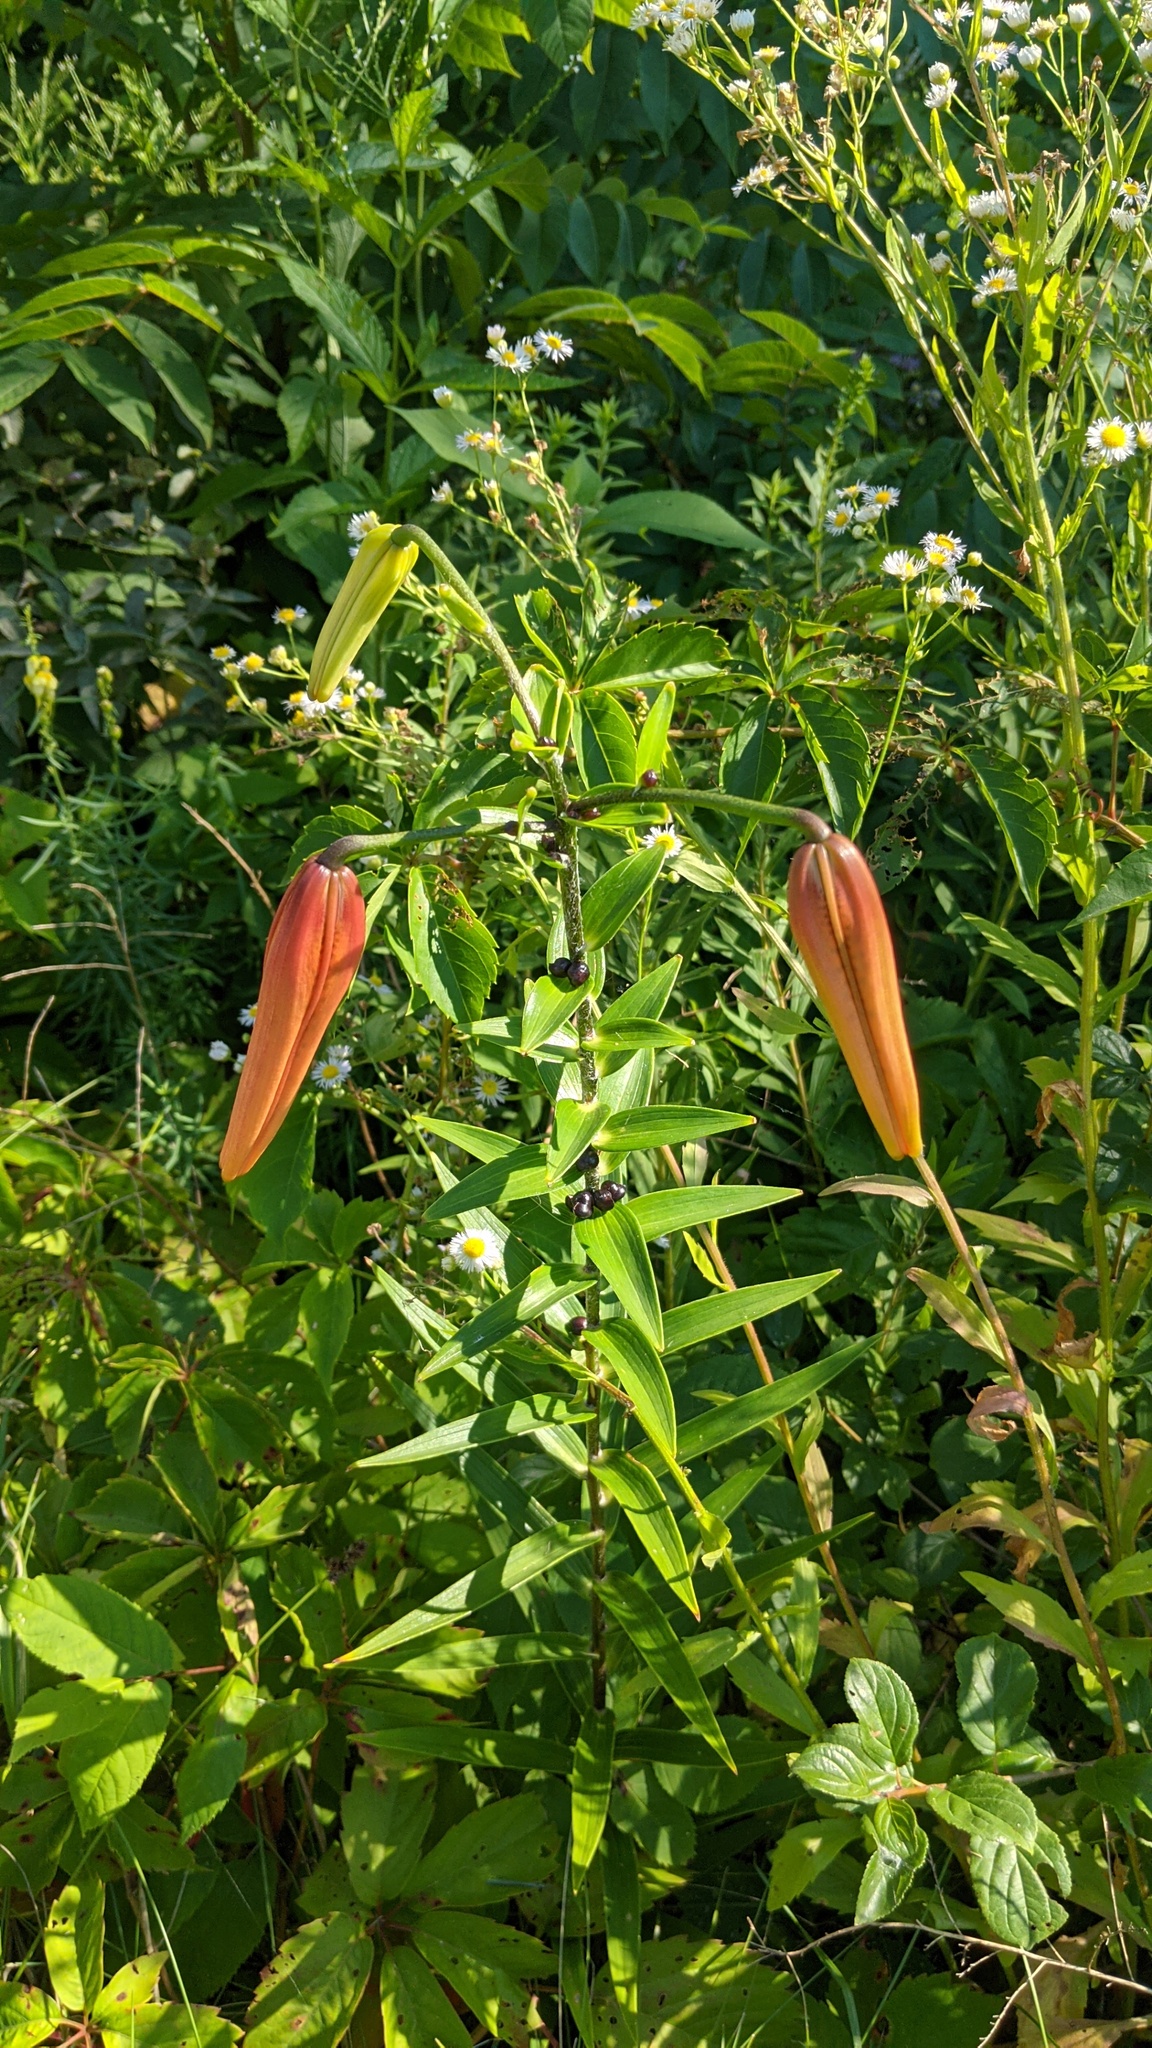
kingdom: Plantae
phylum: Tracheophyta
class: Liliopsida
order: Liliales
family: Liliaceae
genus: Lilium
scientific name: Lilium lancifolium
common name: Tiger lily
